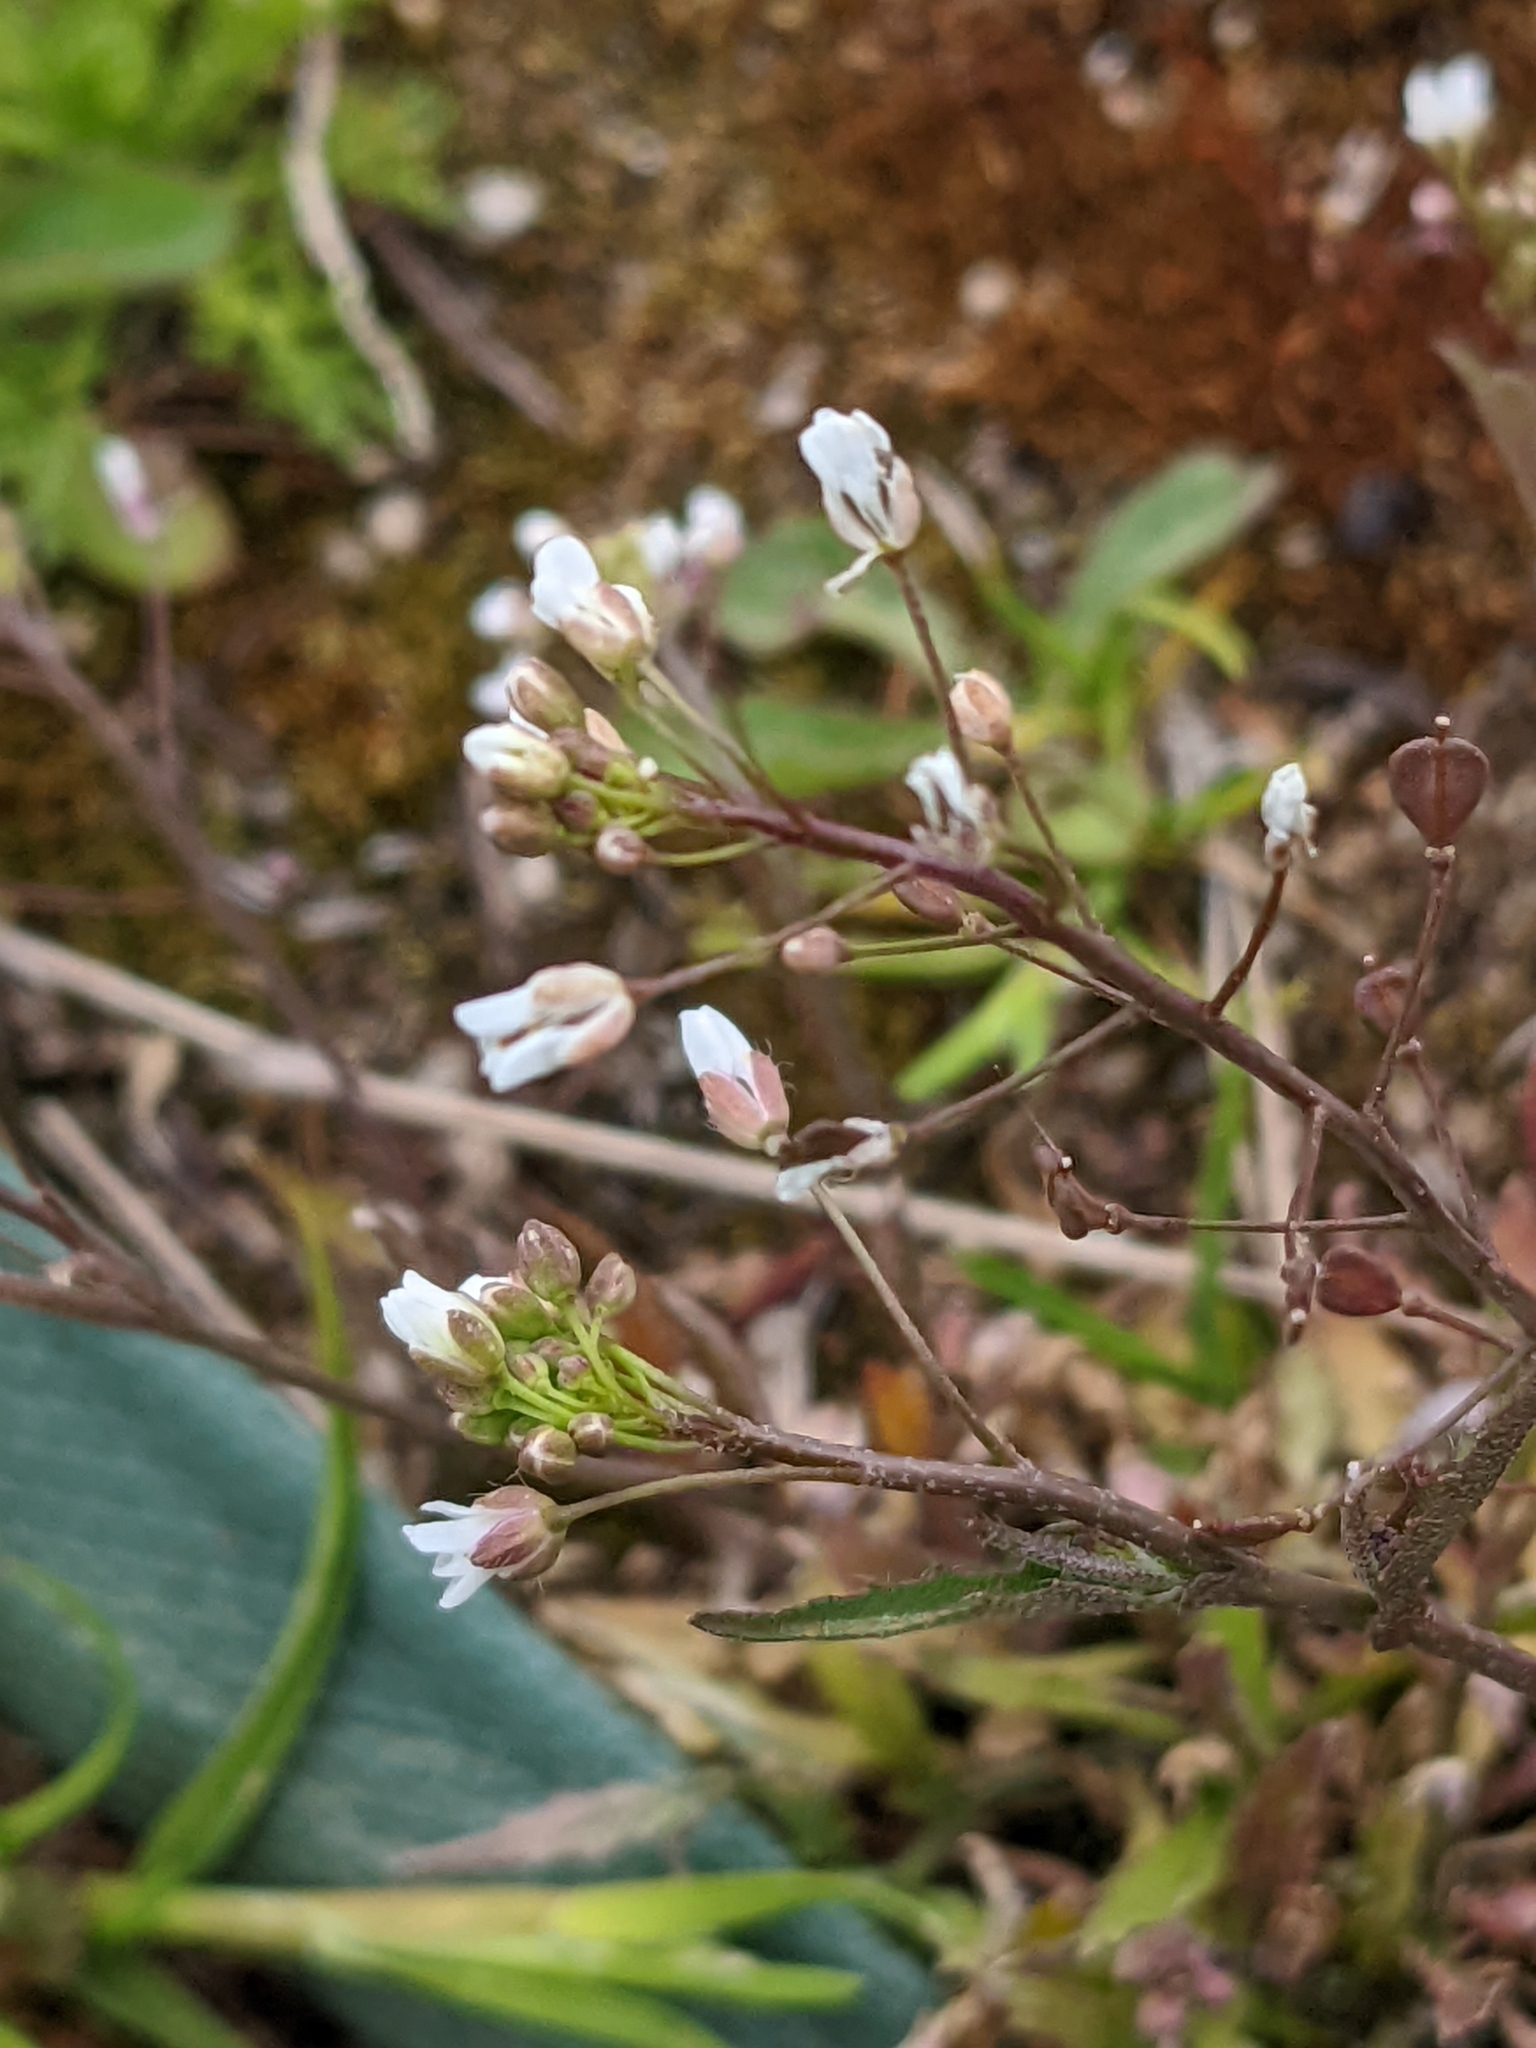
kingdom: Plantae
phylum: Tracheophyta
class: Magnoliopsida
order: Brassicales
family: Brassicaceae
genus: Capsella
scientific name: Capsella bursa-pastoris
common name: Shepherd's purse
